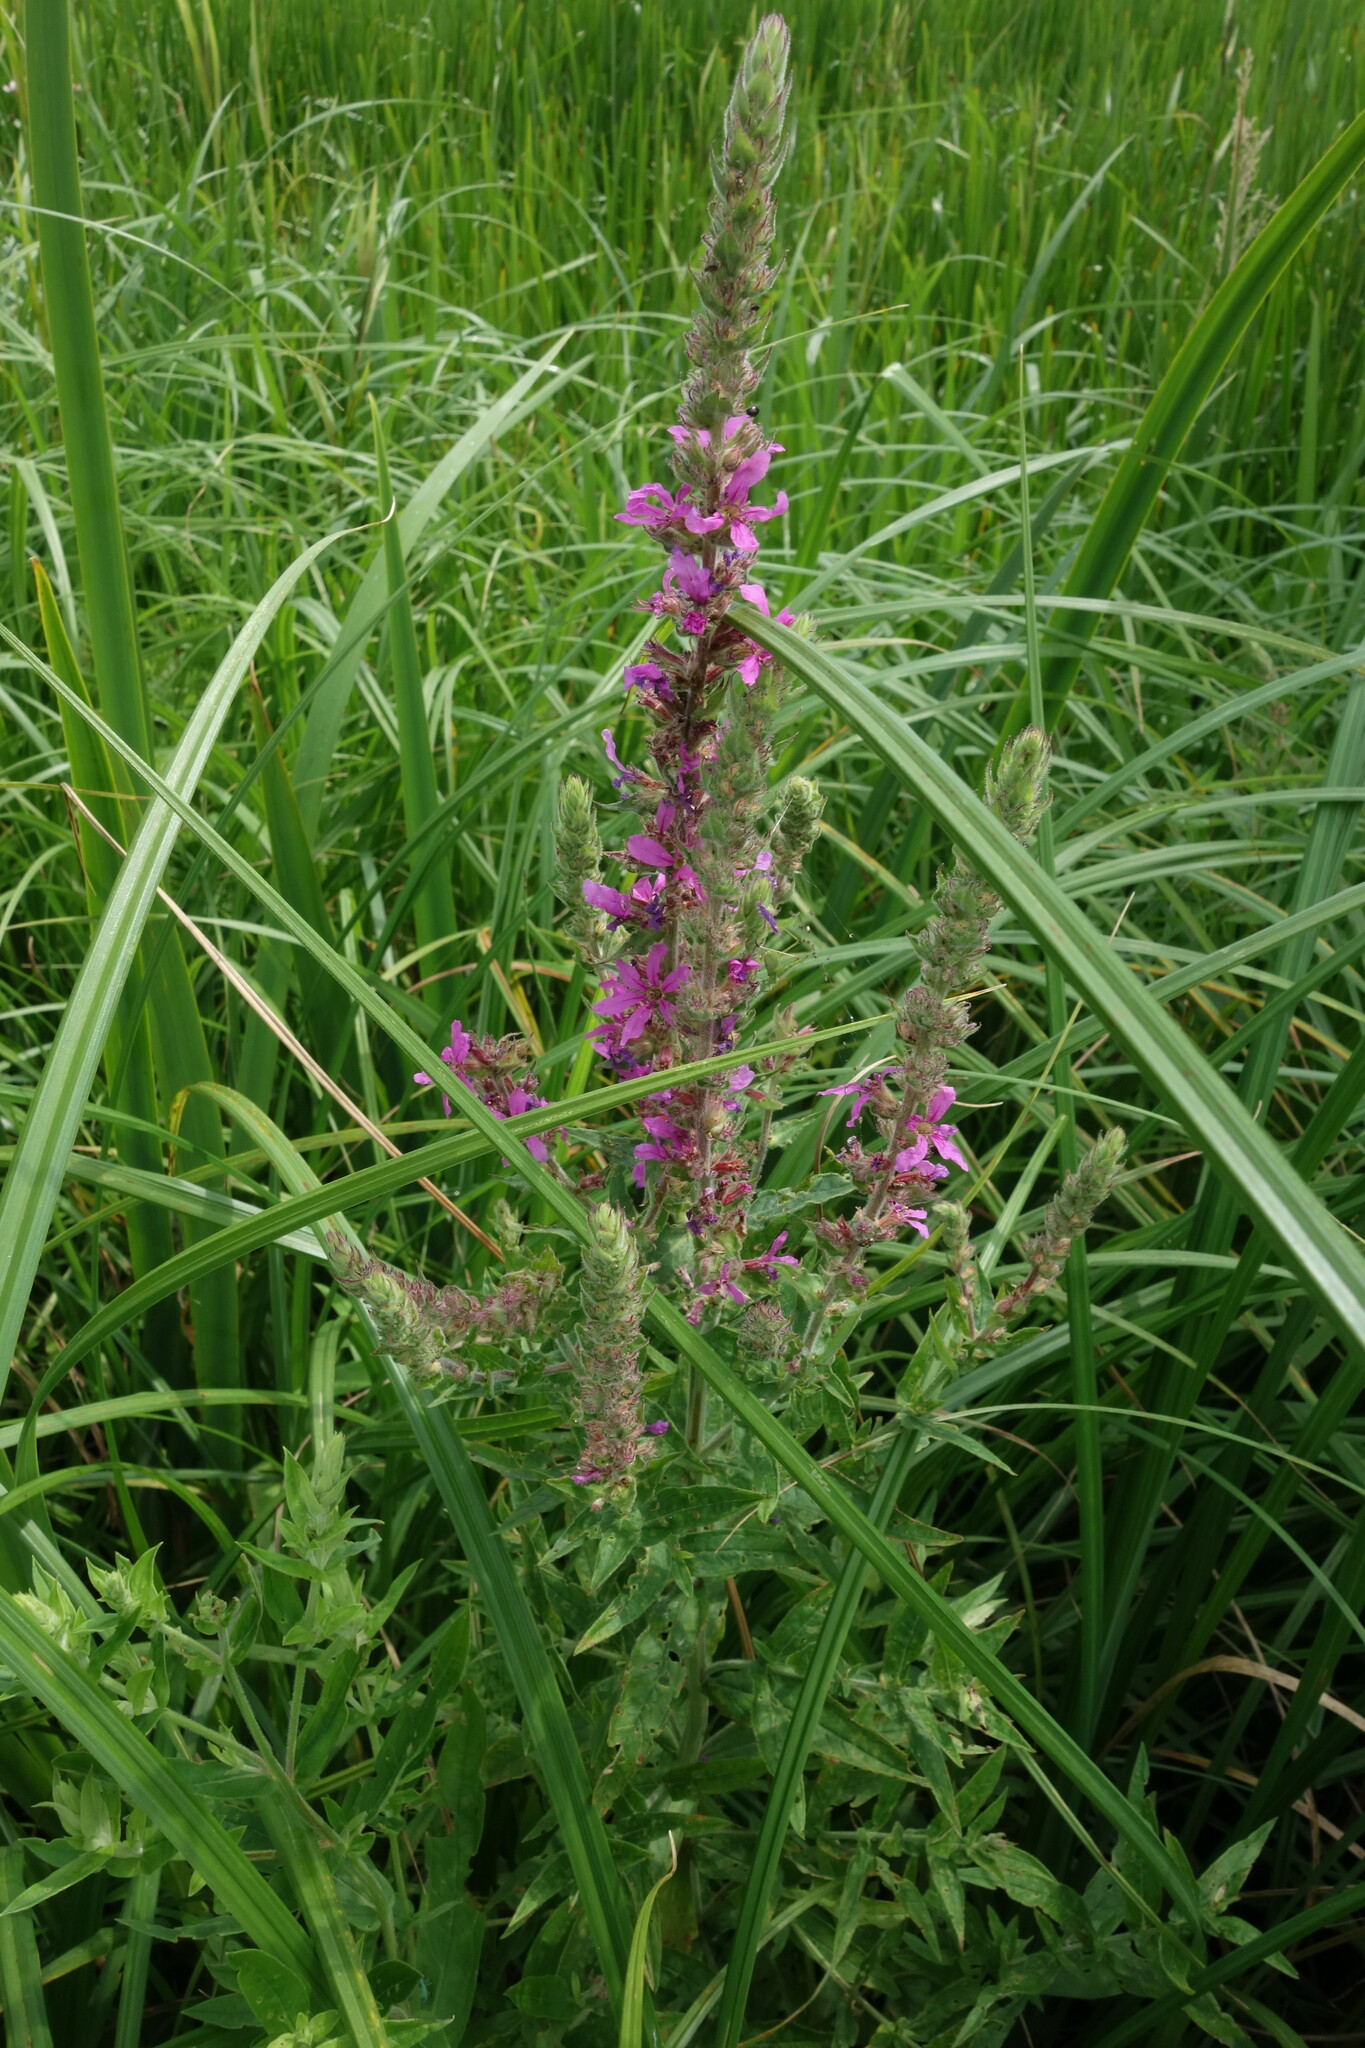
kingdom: Plantae
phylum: Tracheophyta
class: Magnoliopsida
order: Myrtales
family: Lythraceae
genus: Lythrum
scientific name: Lythrum salicaria
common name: Purple loosestrife
